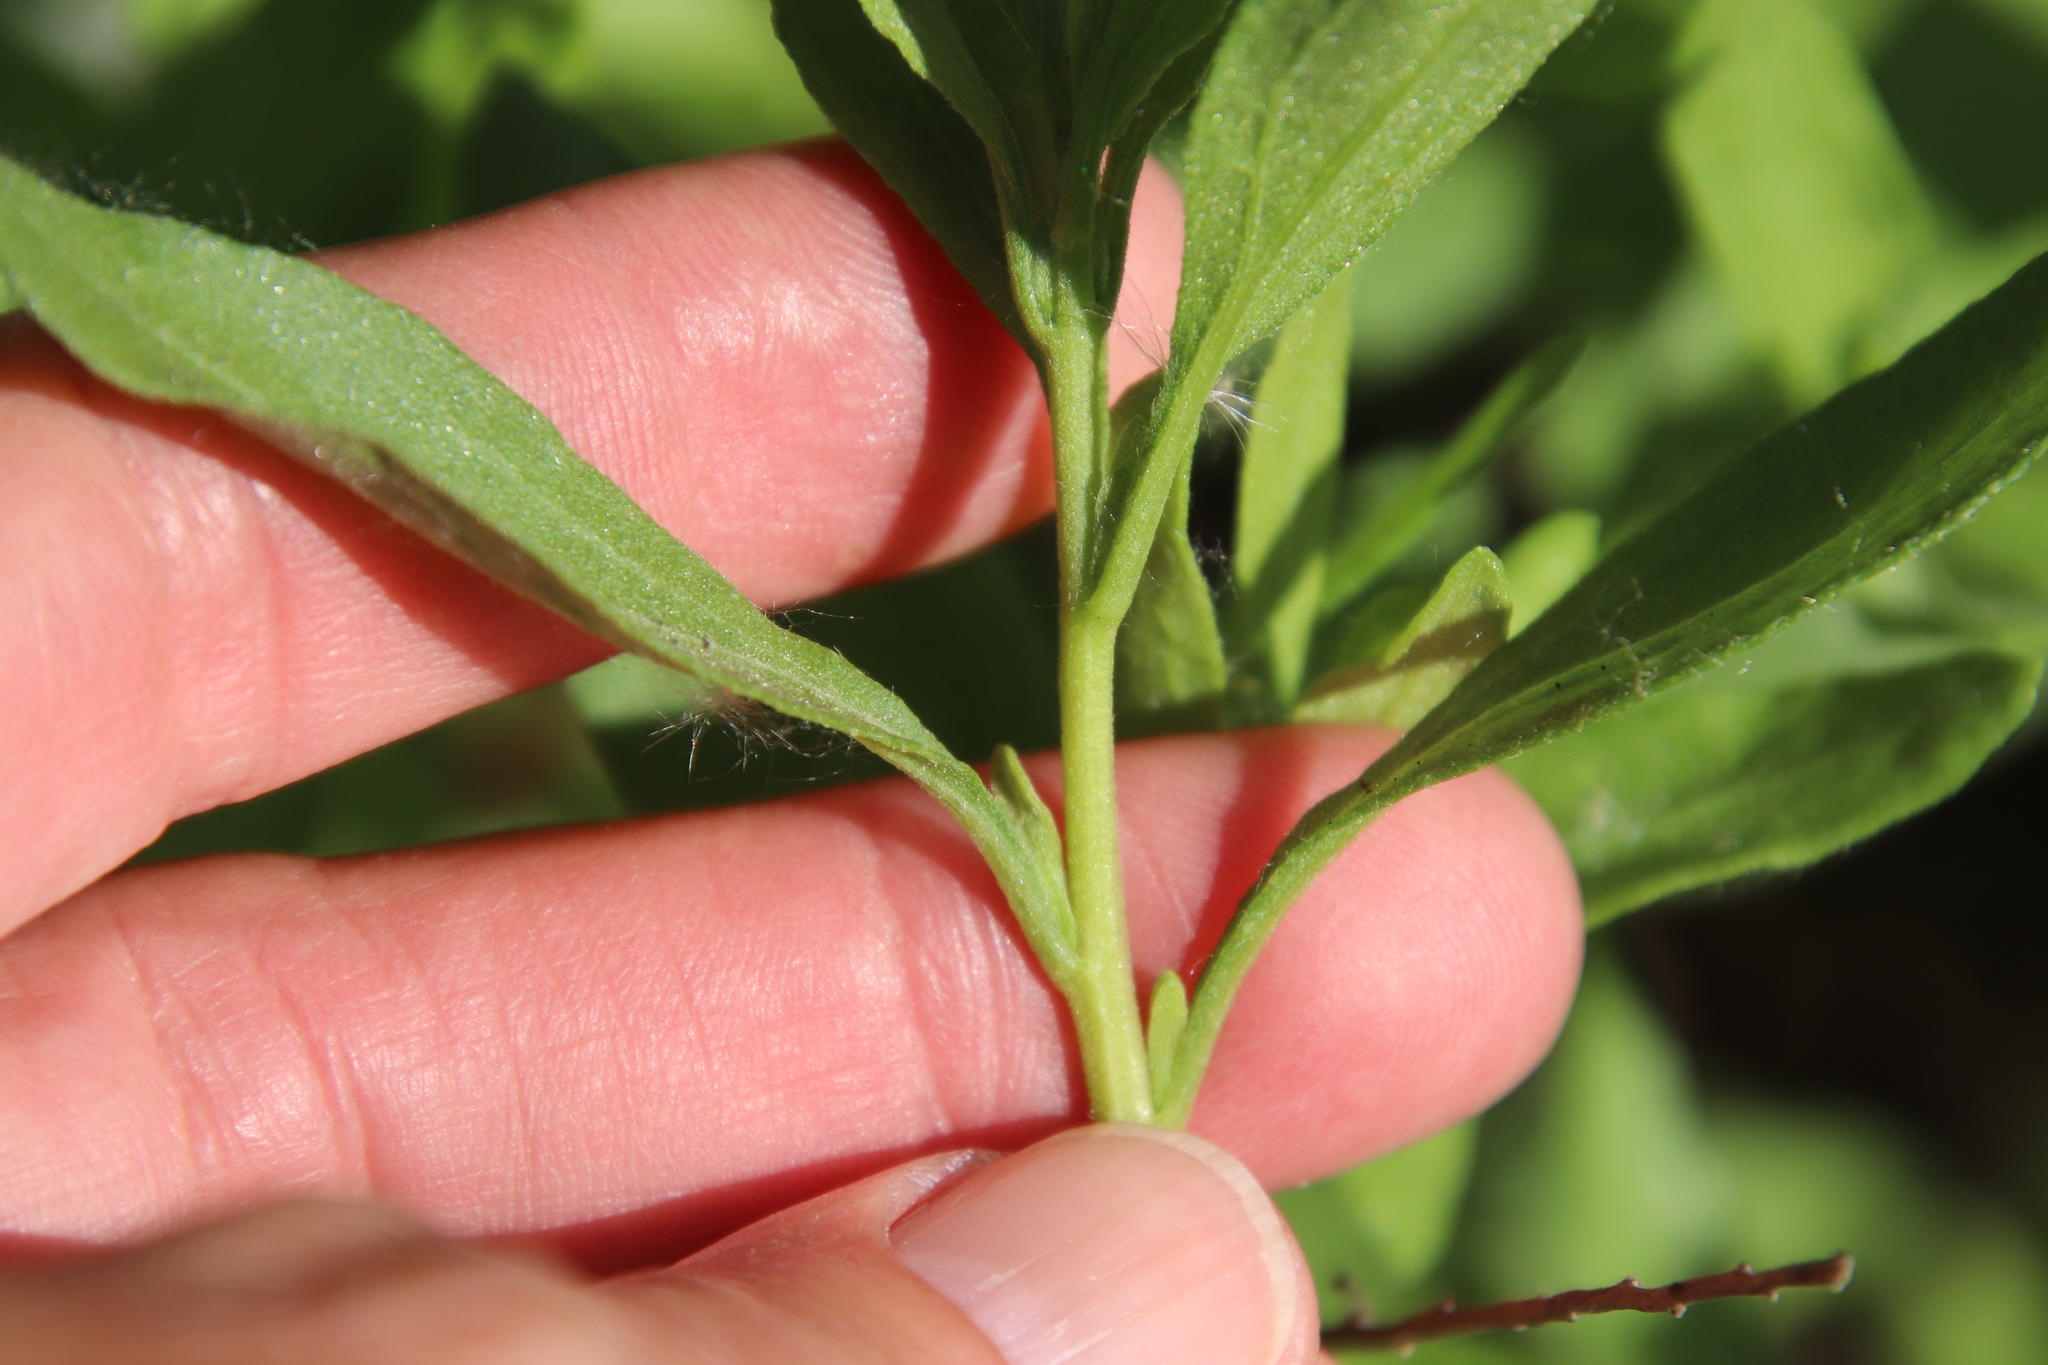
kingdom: Plantae
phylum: Tracheophyta
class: Magnoliopsida
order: Asterales
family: Asteraceae
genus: Iva
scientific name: Iva hayesiana
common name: San diego marsh-elder
